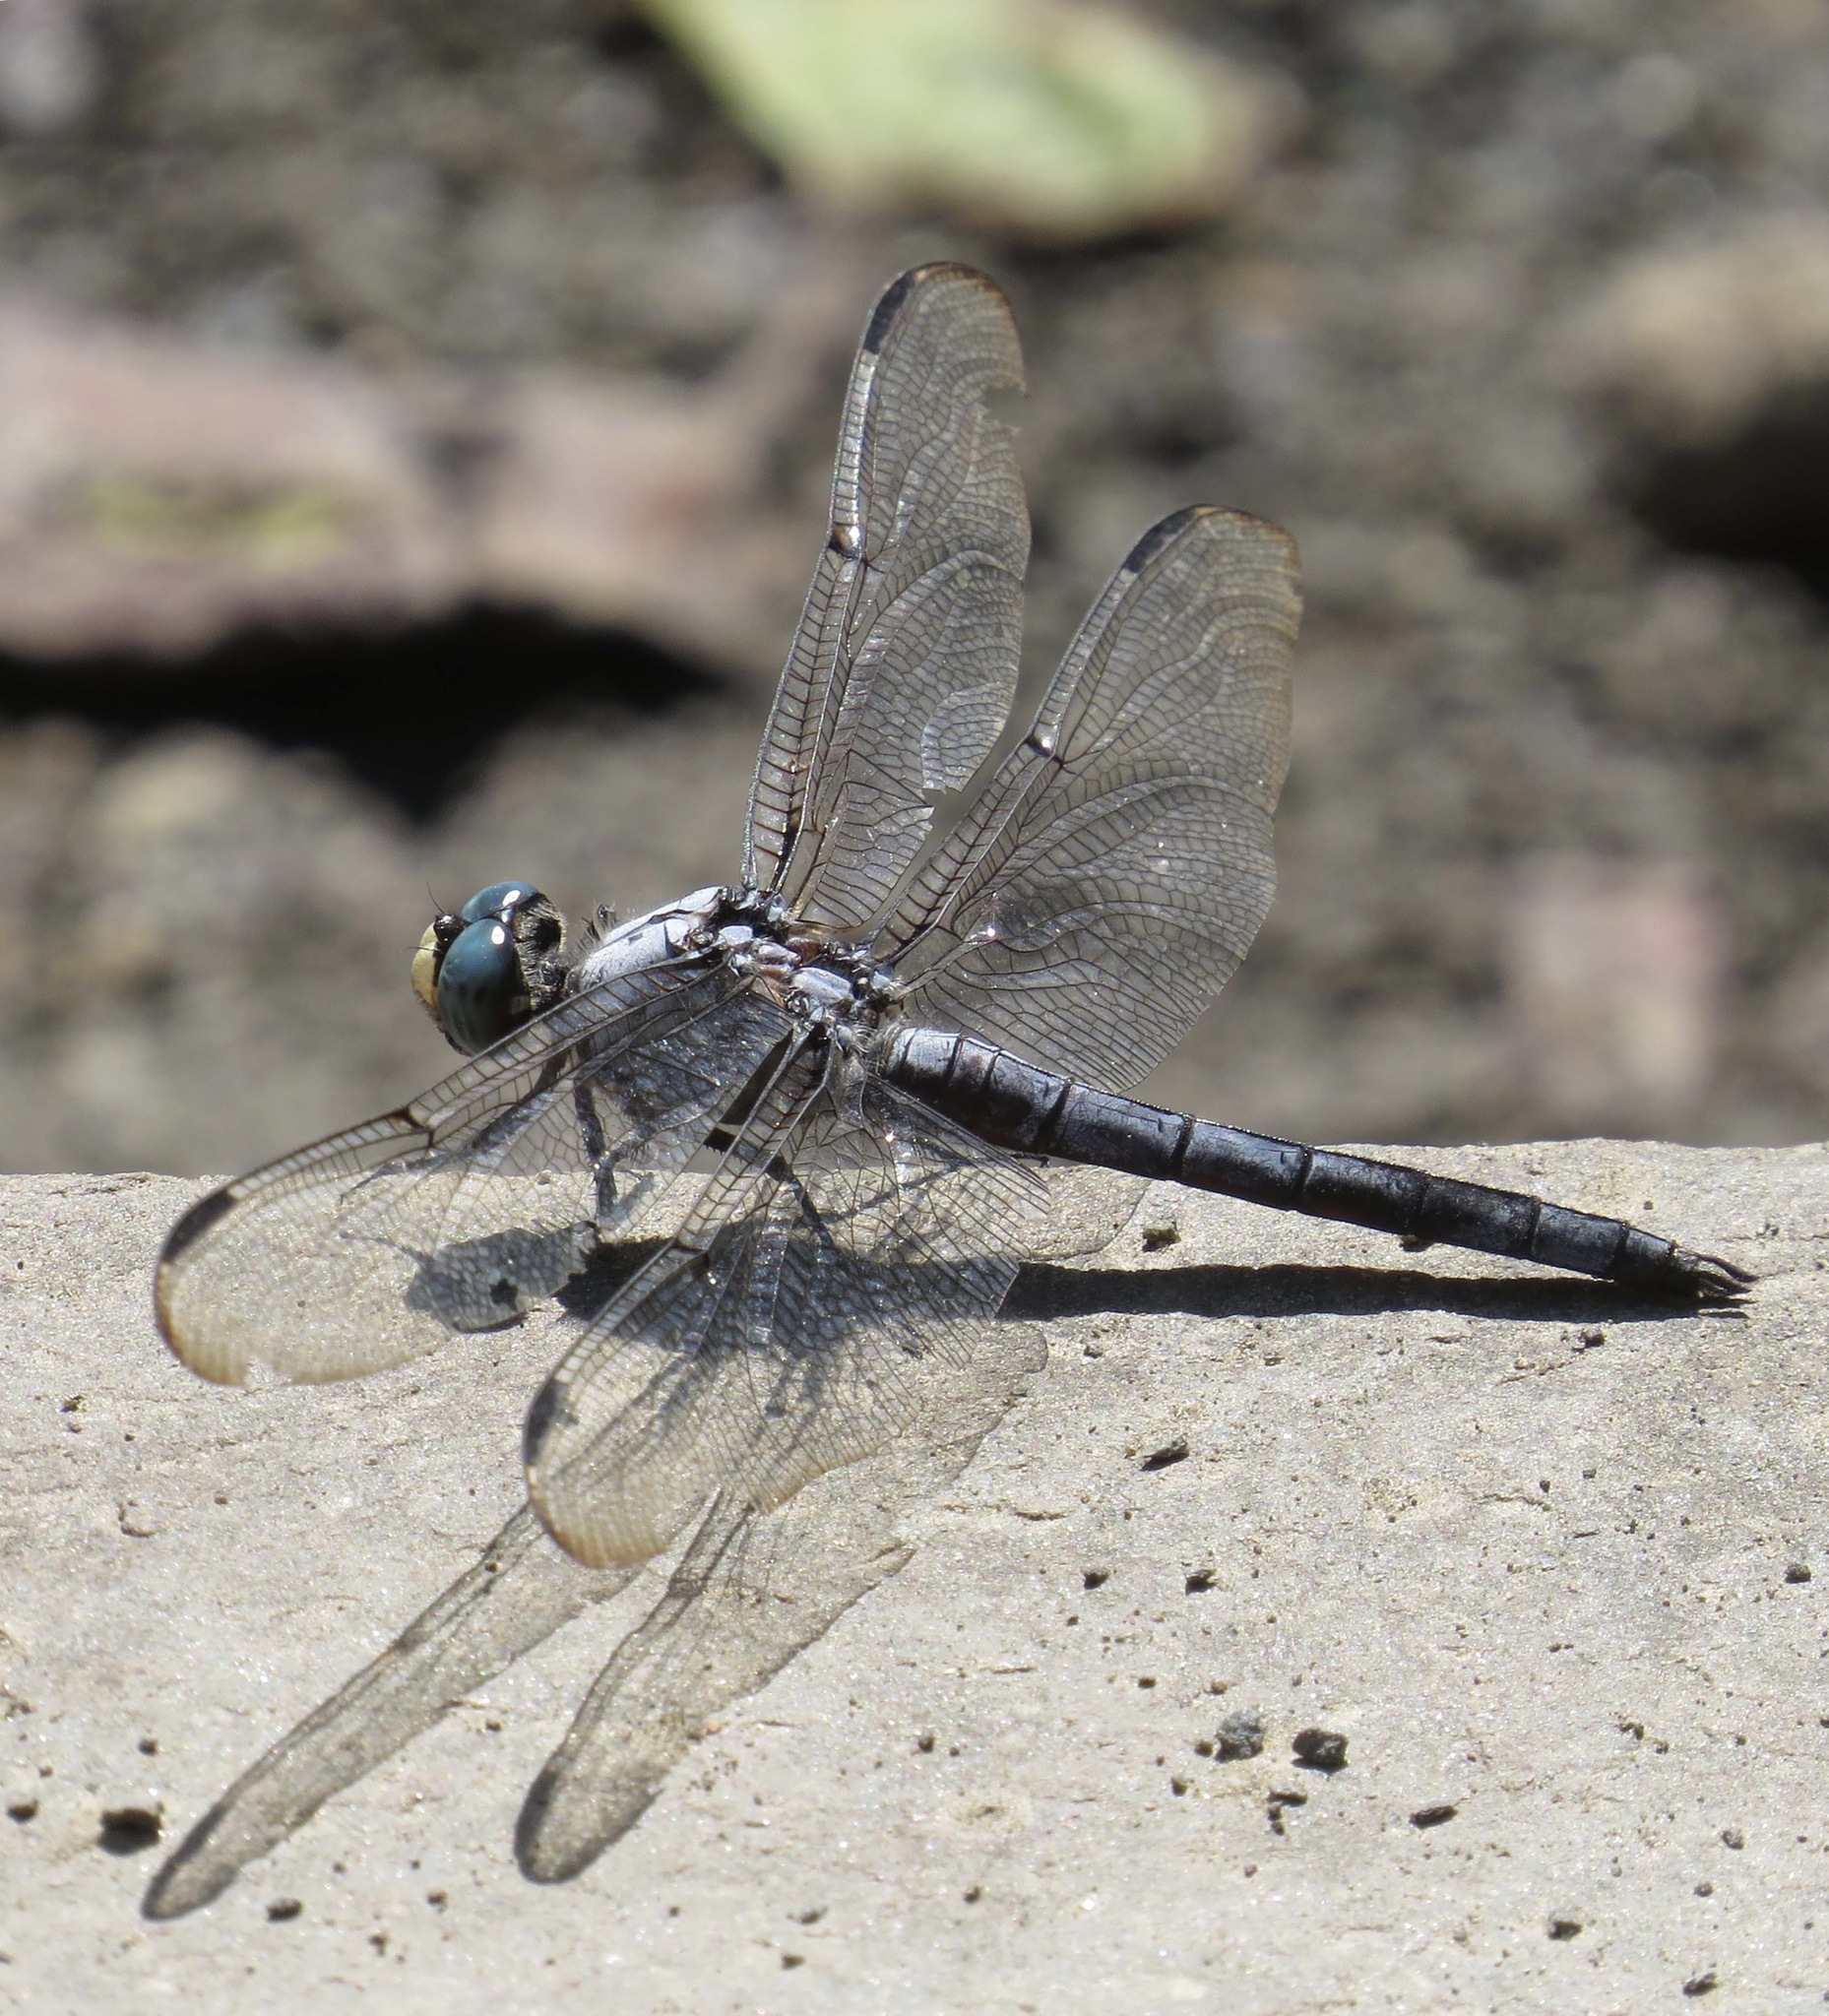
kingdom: Animalia
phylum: Arthropoda
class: Insecta
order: Odonata
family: Libellulidae
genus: Libellula
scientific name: Libellula vibrans
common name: Great blue skimmer
